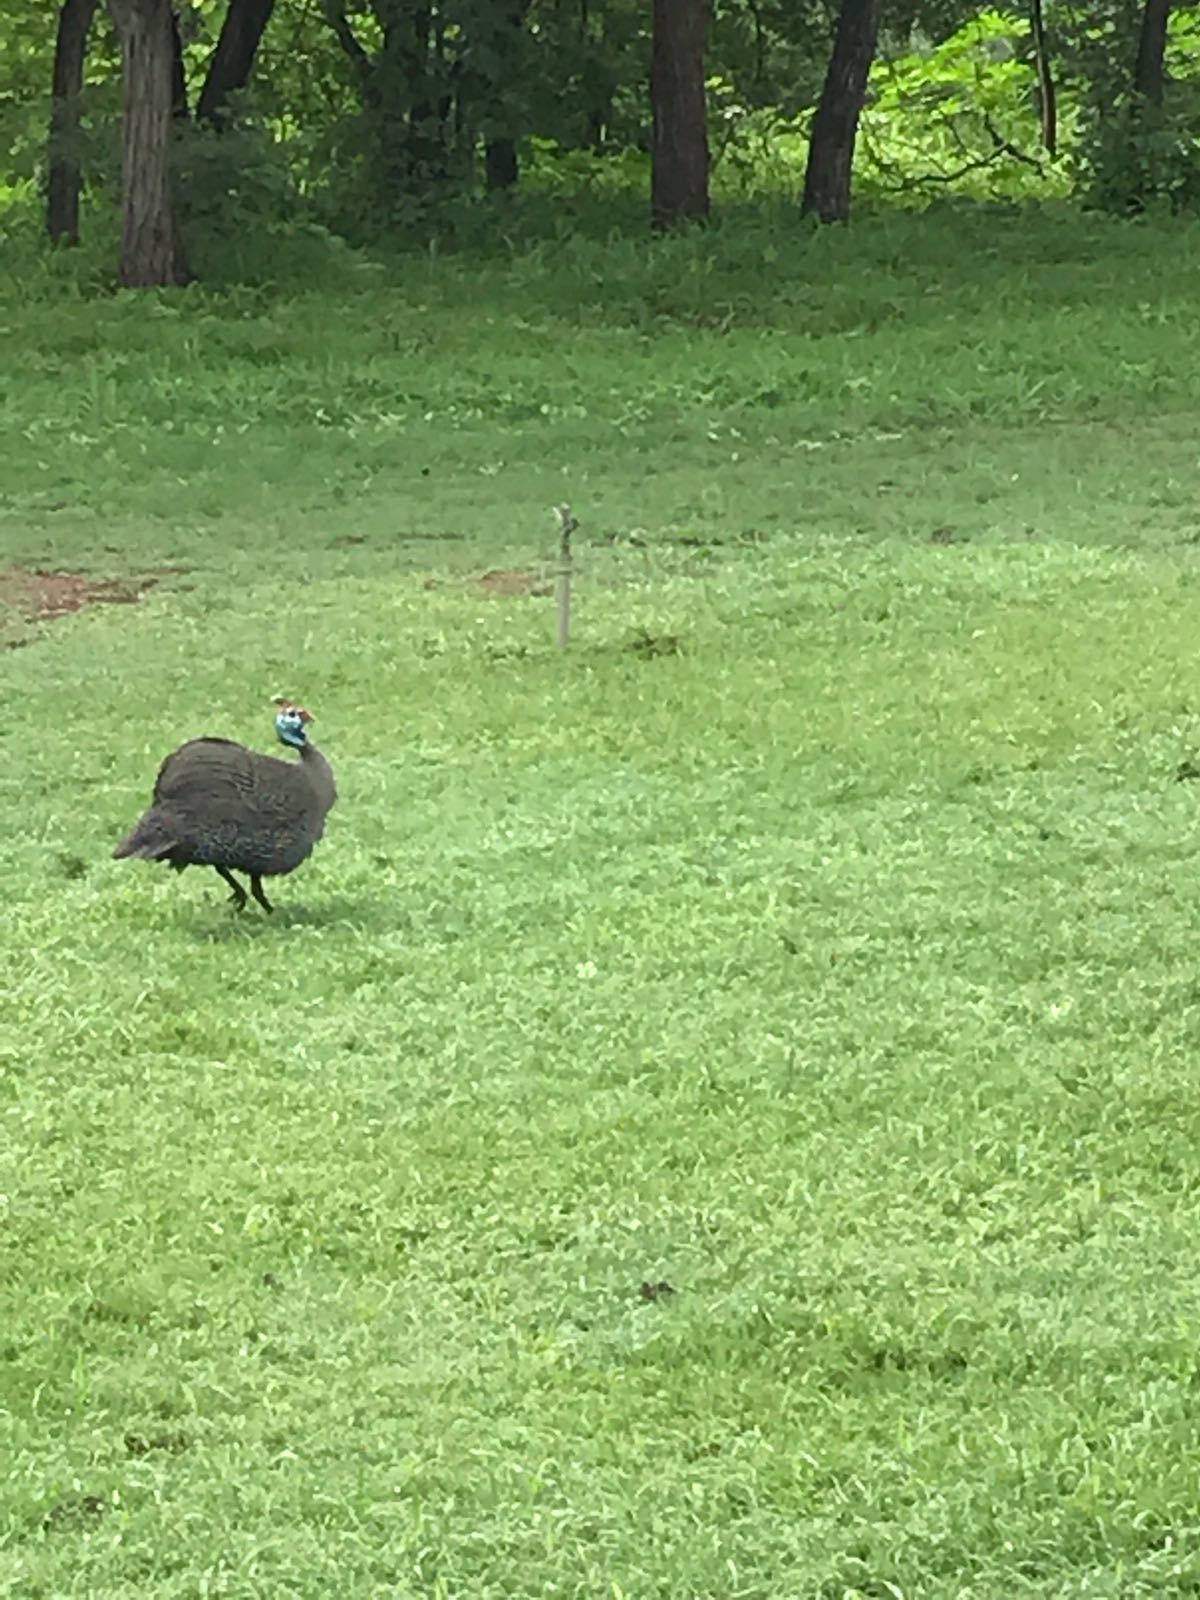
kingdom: Animalia
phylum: Chordata
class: Aves
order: Galliformes
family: Numididae
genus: Numida
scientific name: Numida meleagris
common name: Helmeted guineafowl
